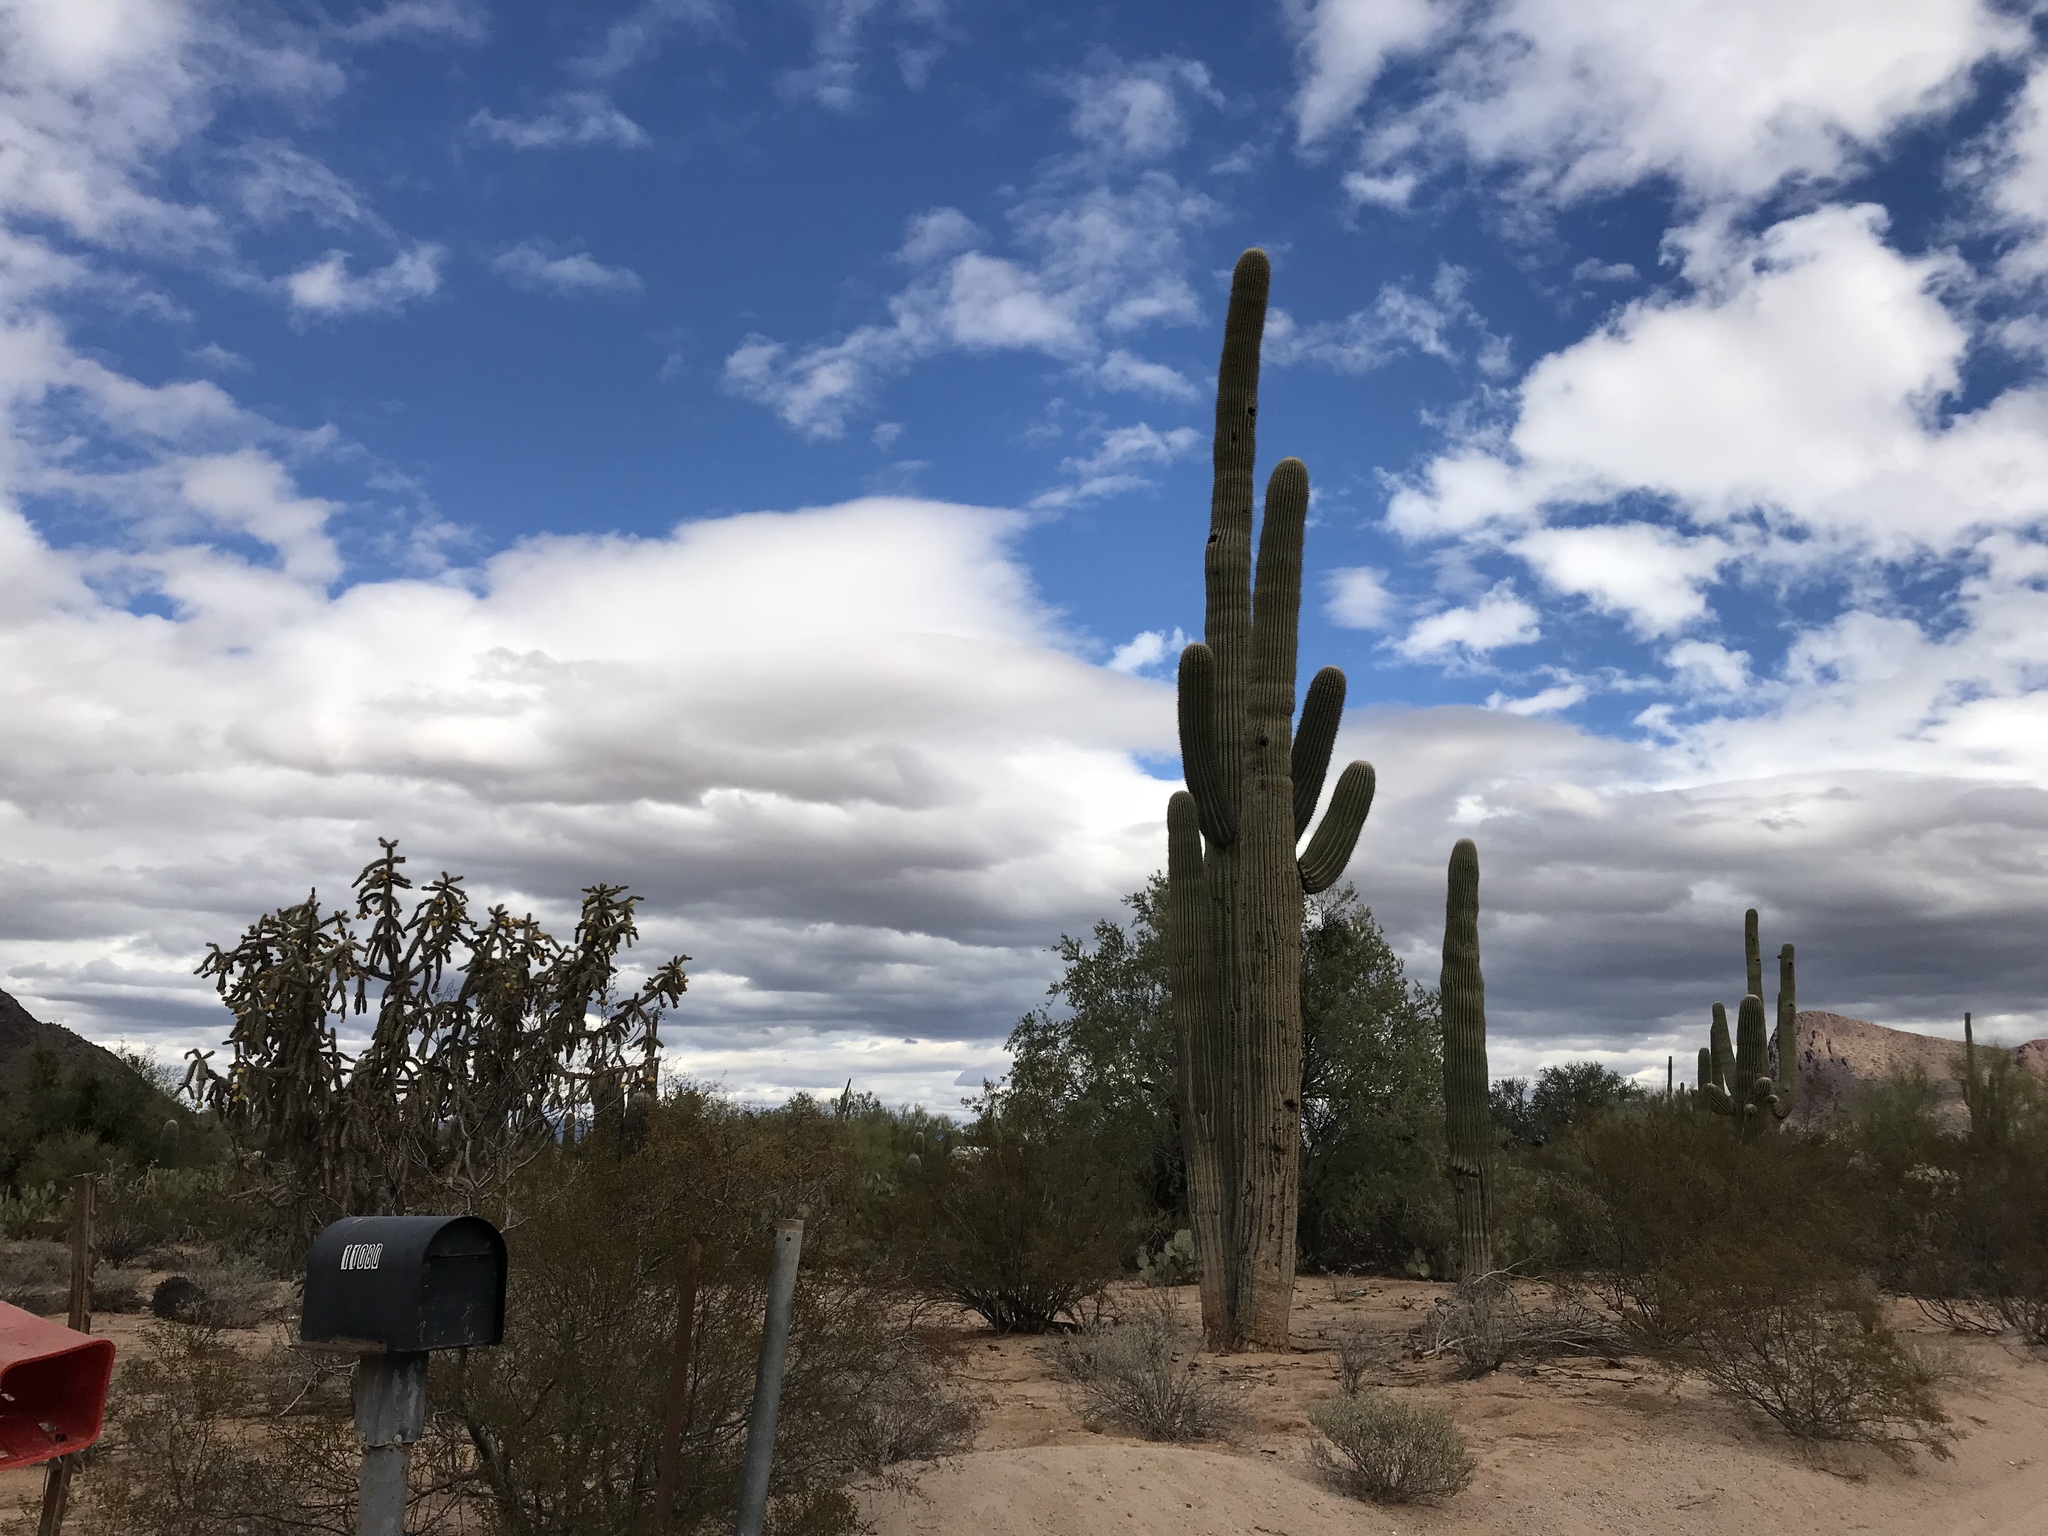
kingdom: Plantae
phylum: Tracheophyta
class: Magnoliopsida
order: Caryophyllales
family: Cactaceae
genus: Carnegiea
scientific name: Carnegiea gigantea
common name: Saguaro
